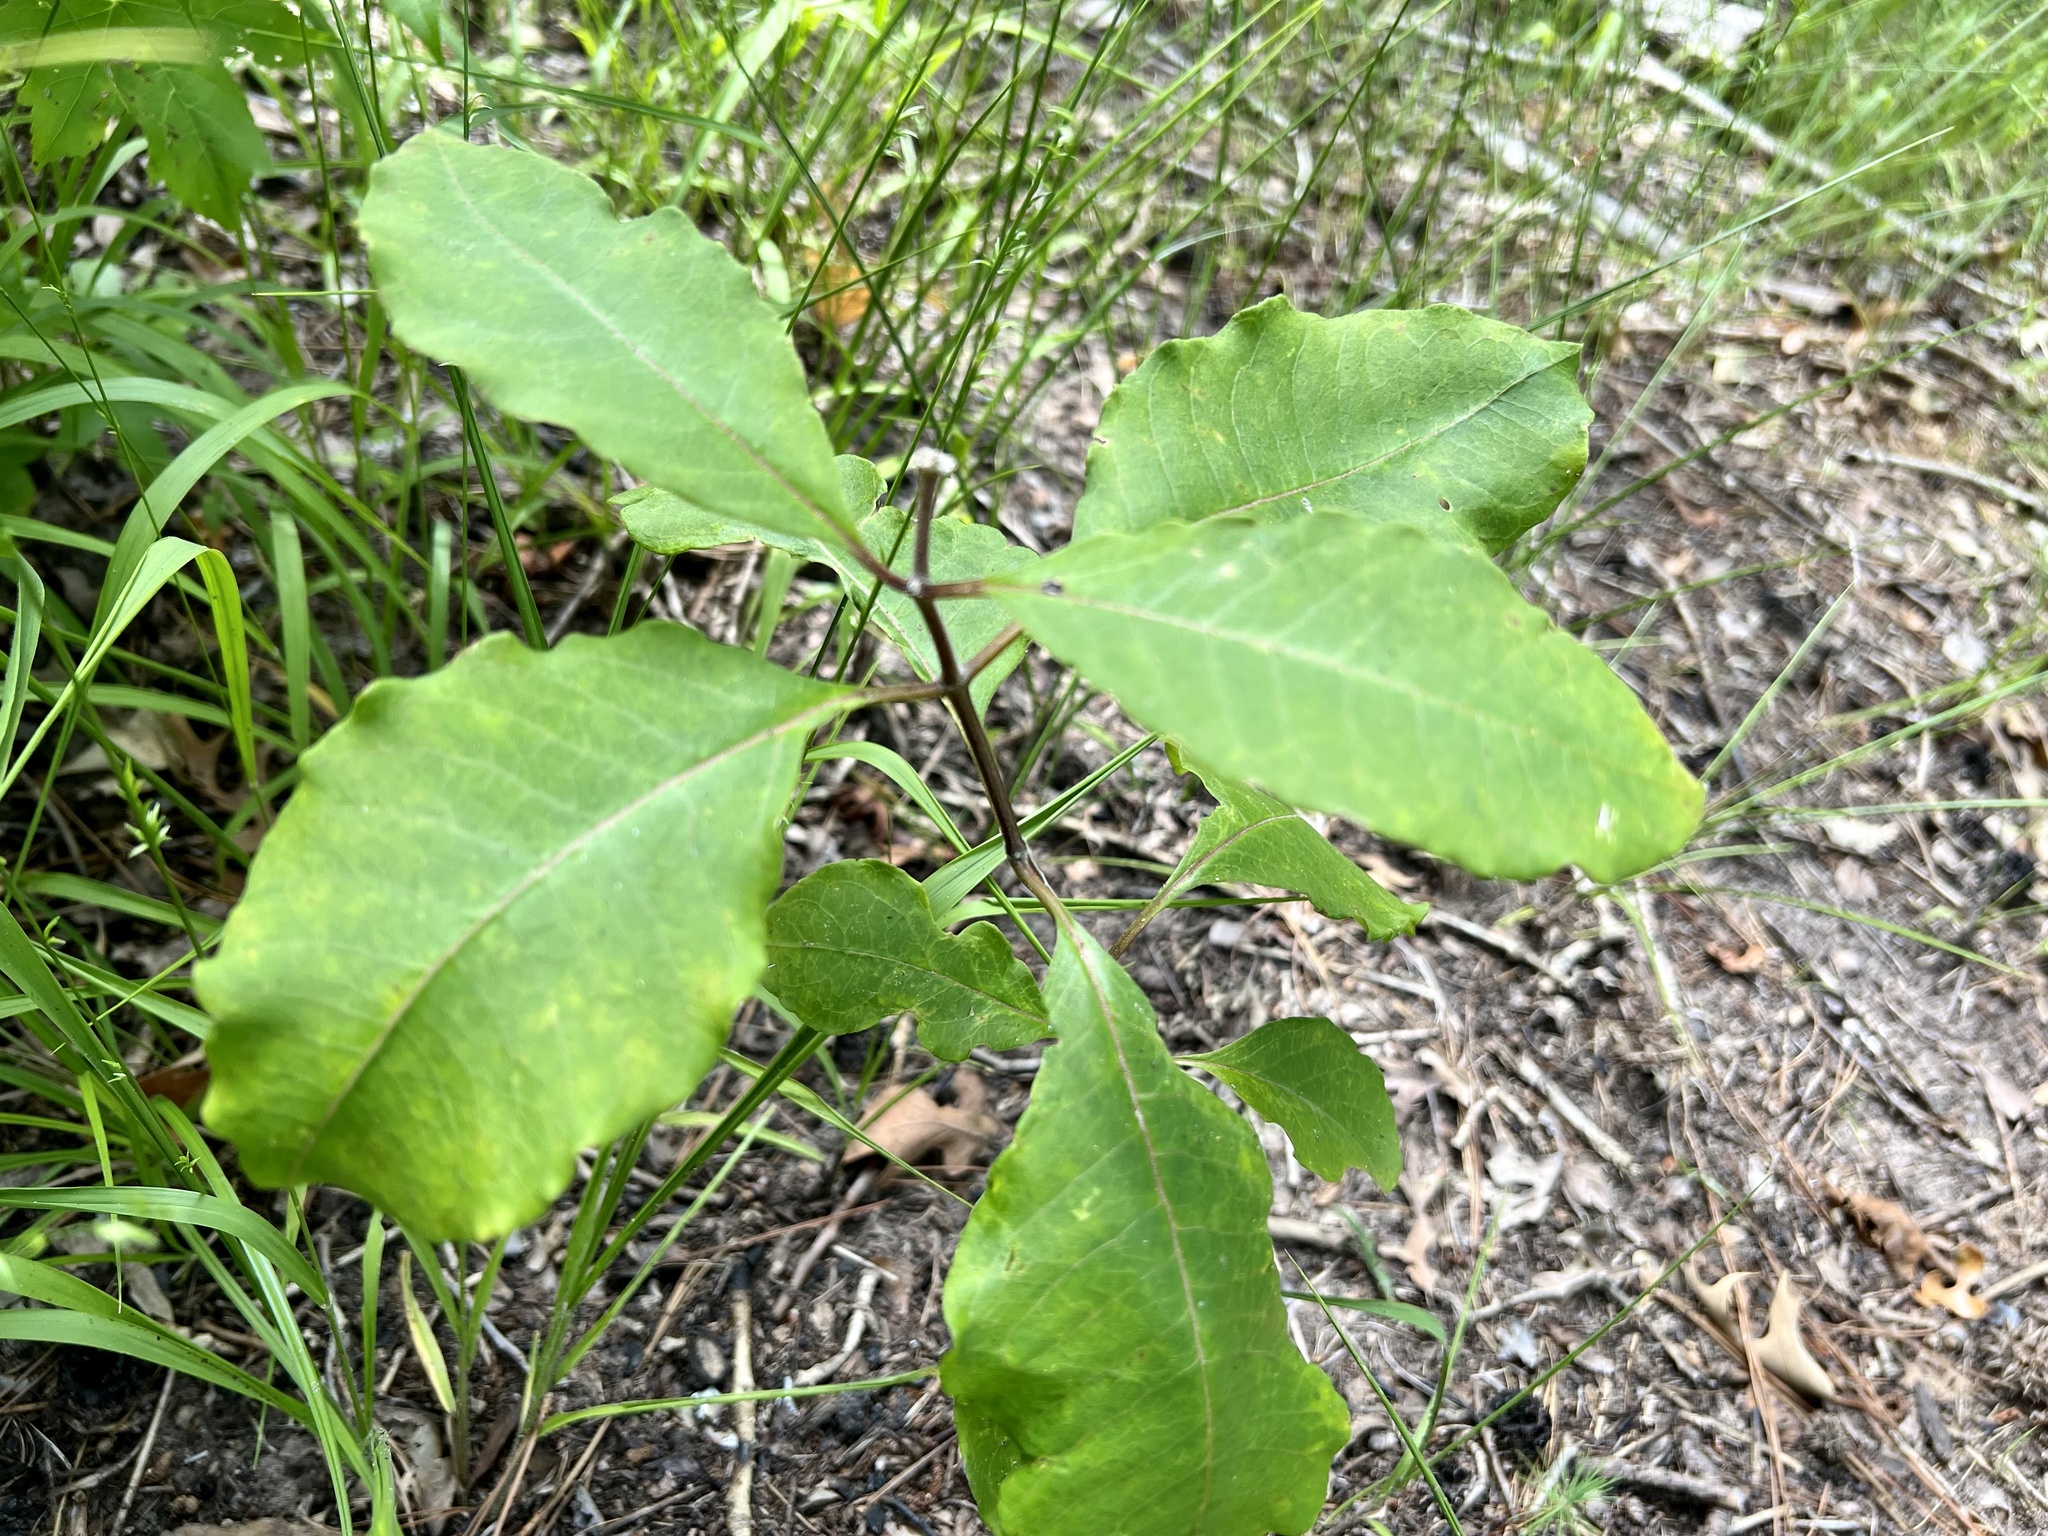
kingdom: Plantae
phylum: Tracheophyta
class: Magnoliopsida
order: Gentianales
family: Apocynaceae
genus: Asclepias
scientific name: Asclepias variegata
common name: Variegated milkweed
